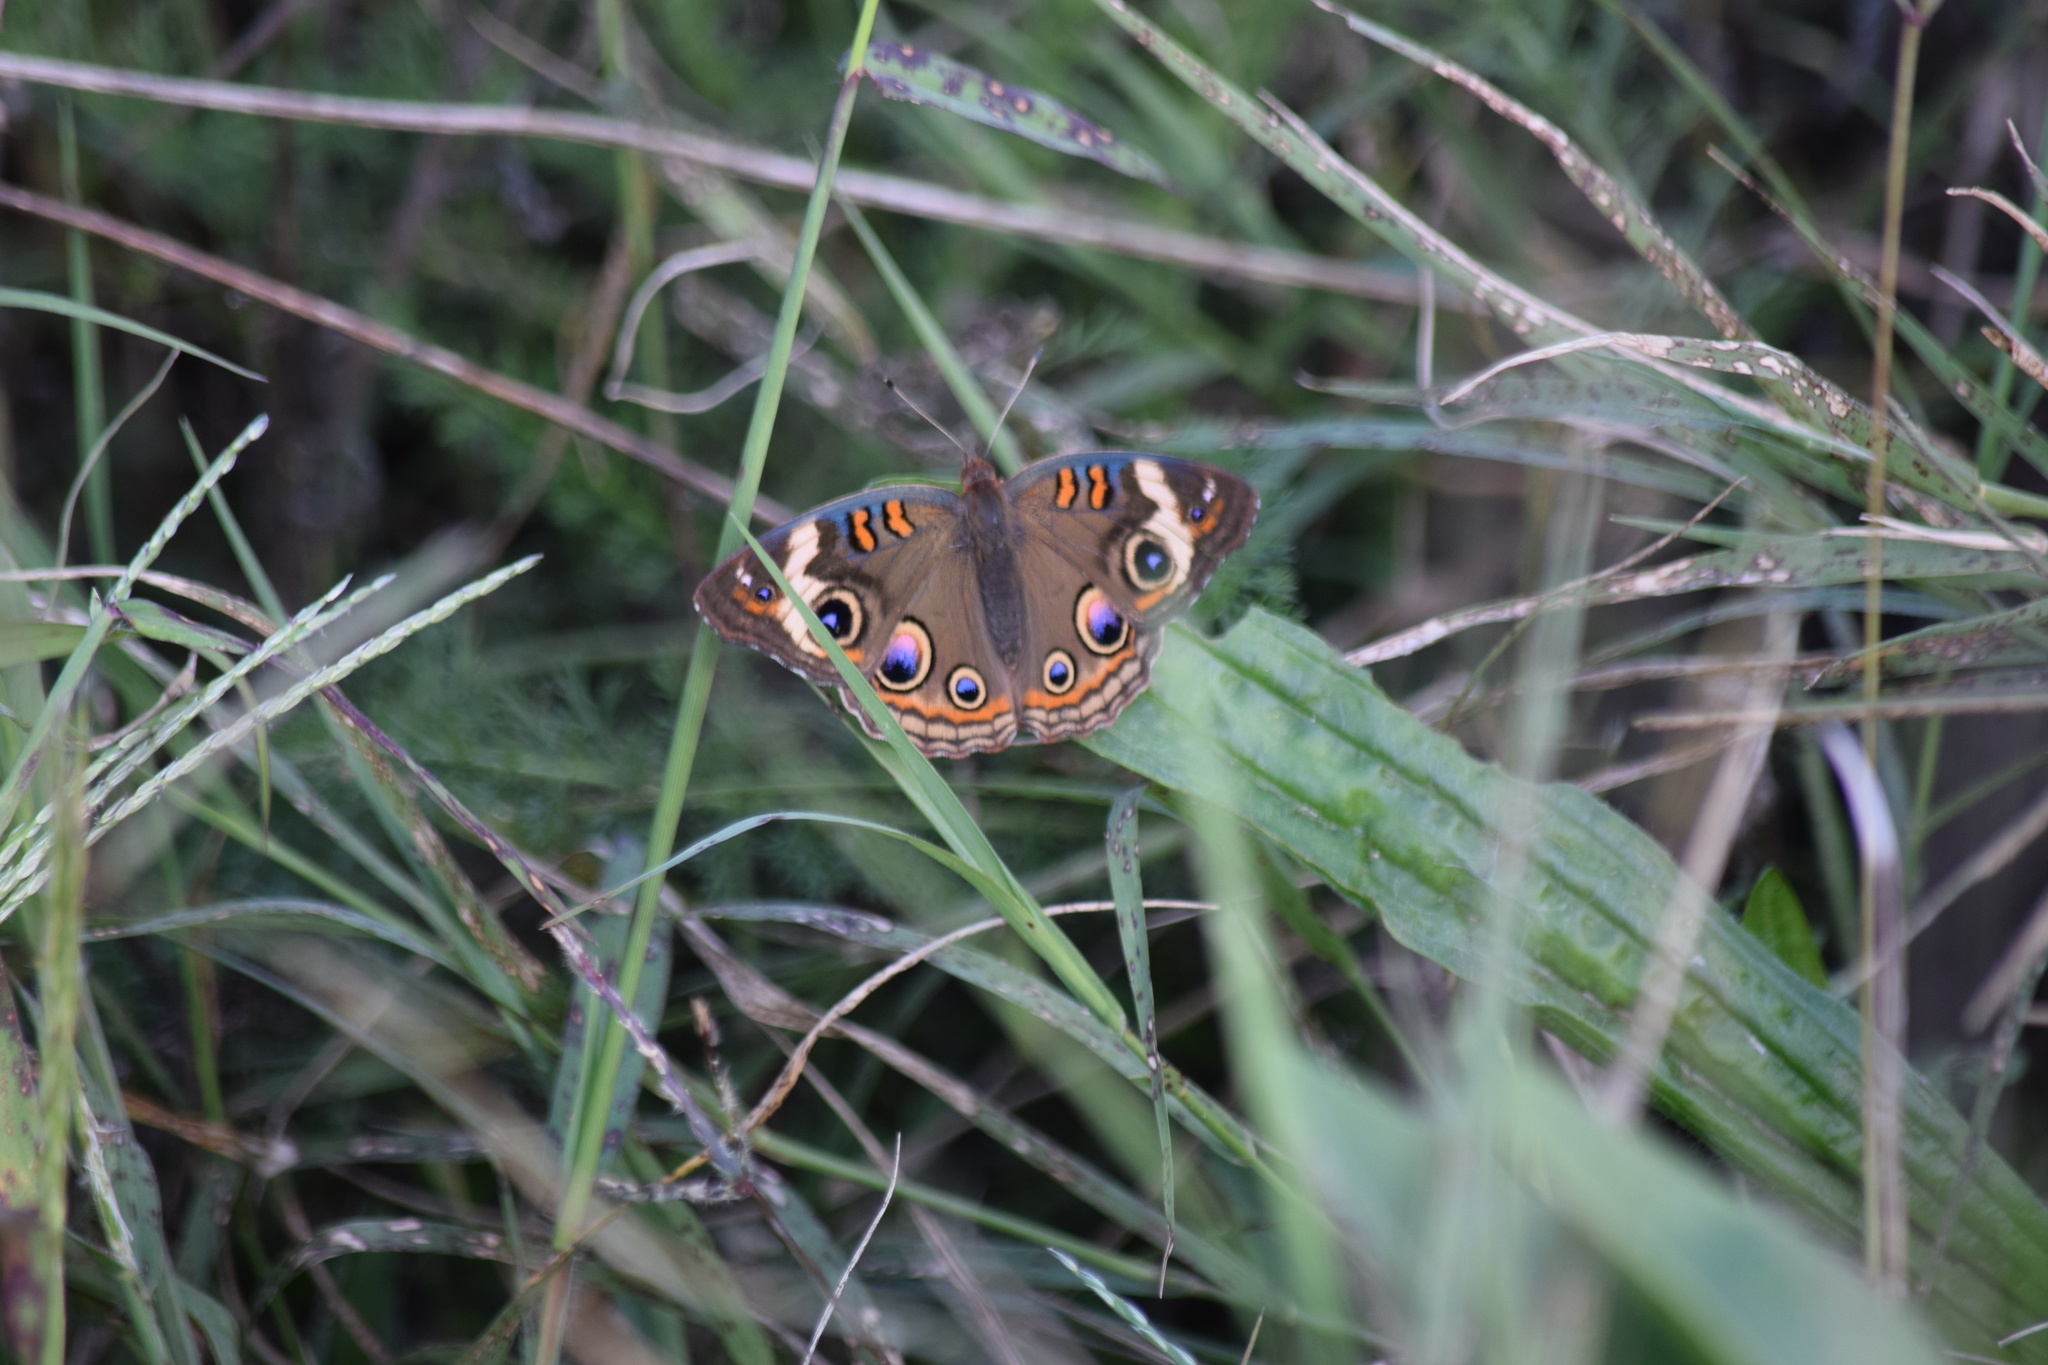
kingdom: Animalia
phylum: Arthropoda
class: Insecta
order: Lepidoptera
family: Nymphalidae
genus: Junonia
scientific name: Junonia coenia
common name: Common buckeye
